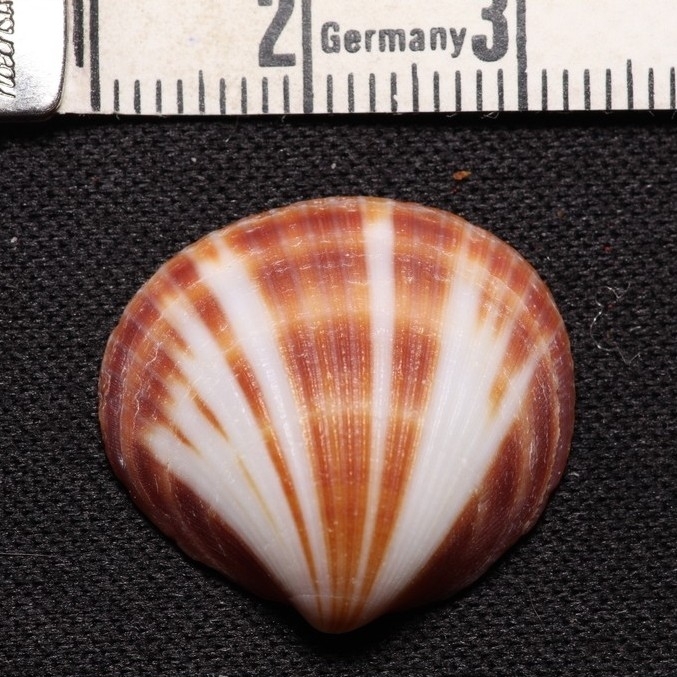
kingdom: Animalia
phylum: Mollusca
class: Bivalvia
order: Arcida
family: Glycymerididae
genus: Glycymeris
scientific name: Glycymeris spectralis
